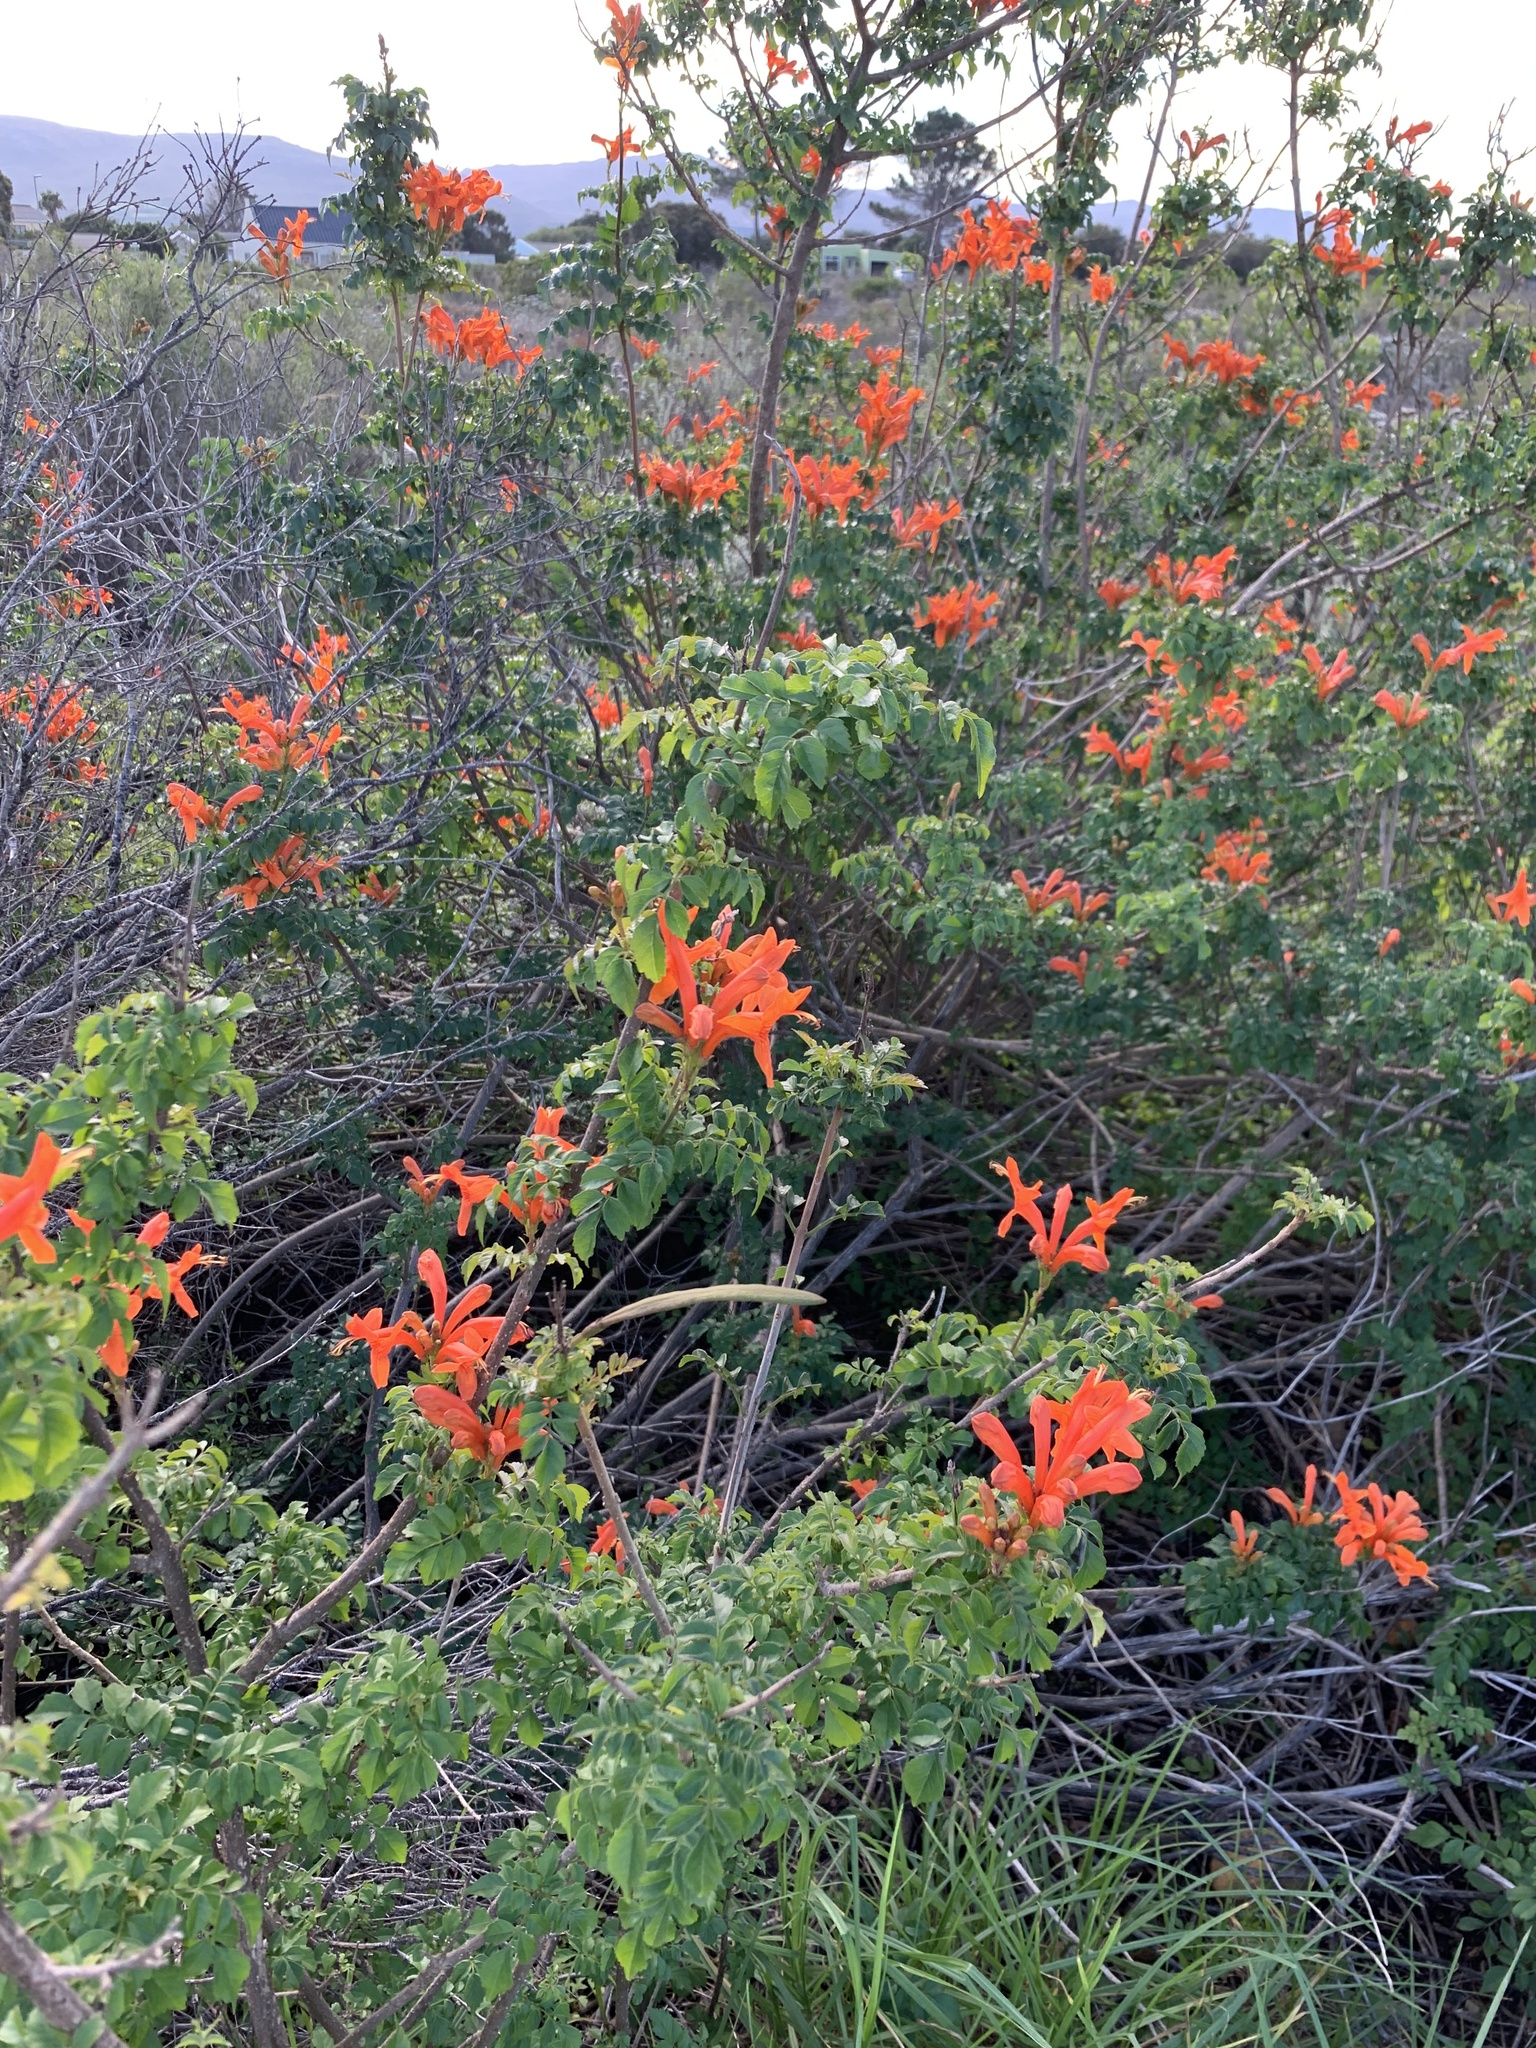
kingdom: Plantae
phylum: Tracheophyta
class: Magnoliopsida
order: Lamiales
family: Bignoniaceae
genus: Tecomaria
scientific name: Tecomaria capensis
